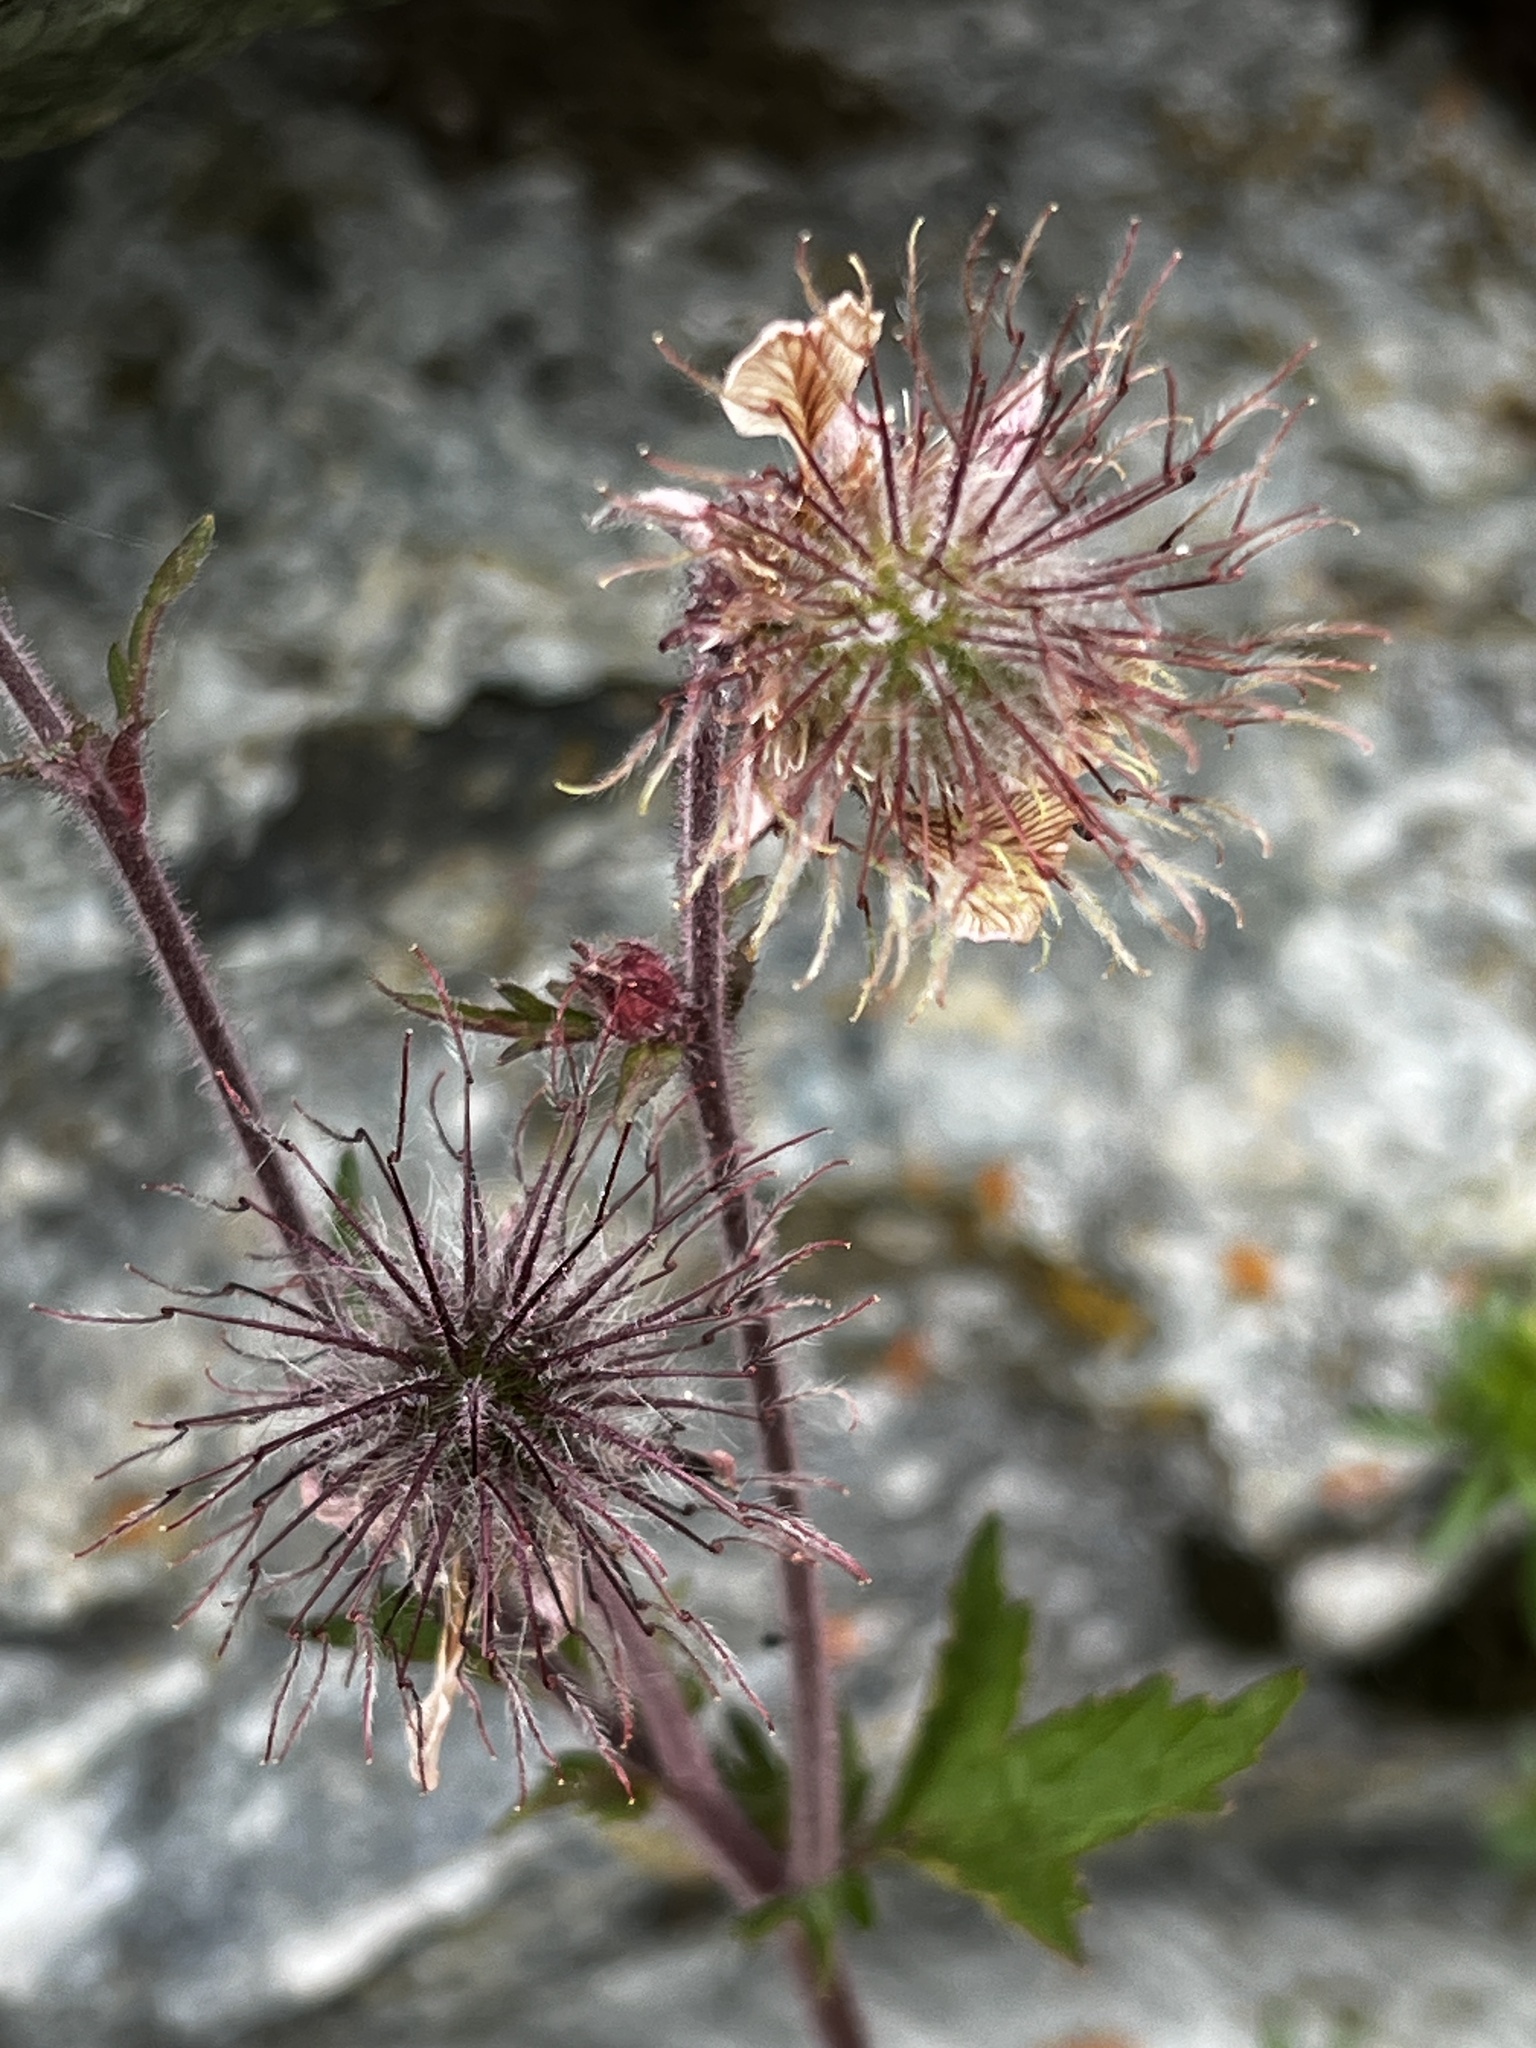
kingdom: Plantae
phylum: Tracheophyta
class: Magnoliopsida
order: Rosales
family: Rosaceae
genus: Geum
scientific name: Geum rivale
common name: Water avens
